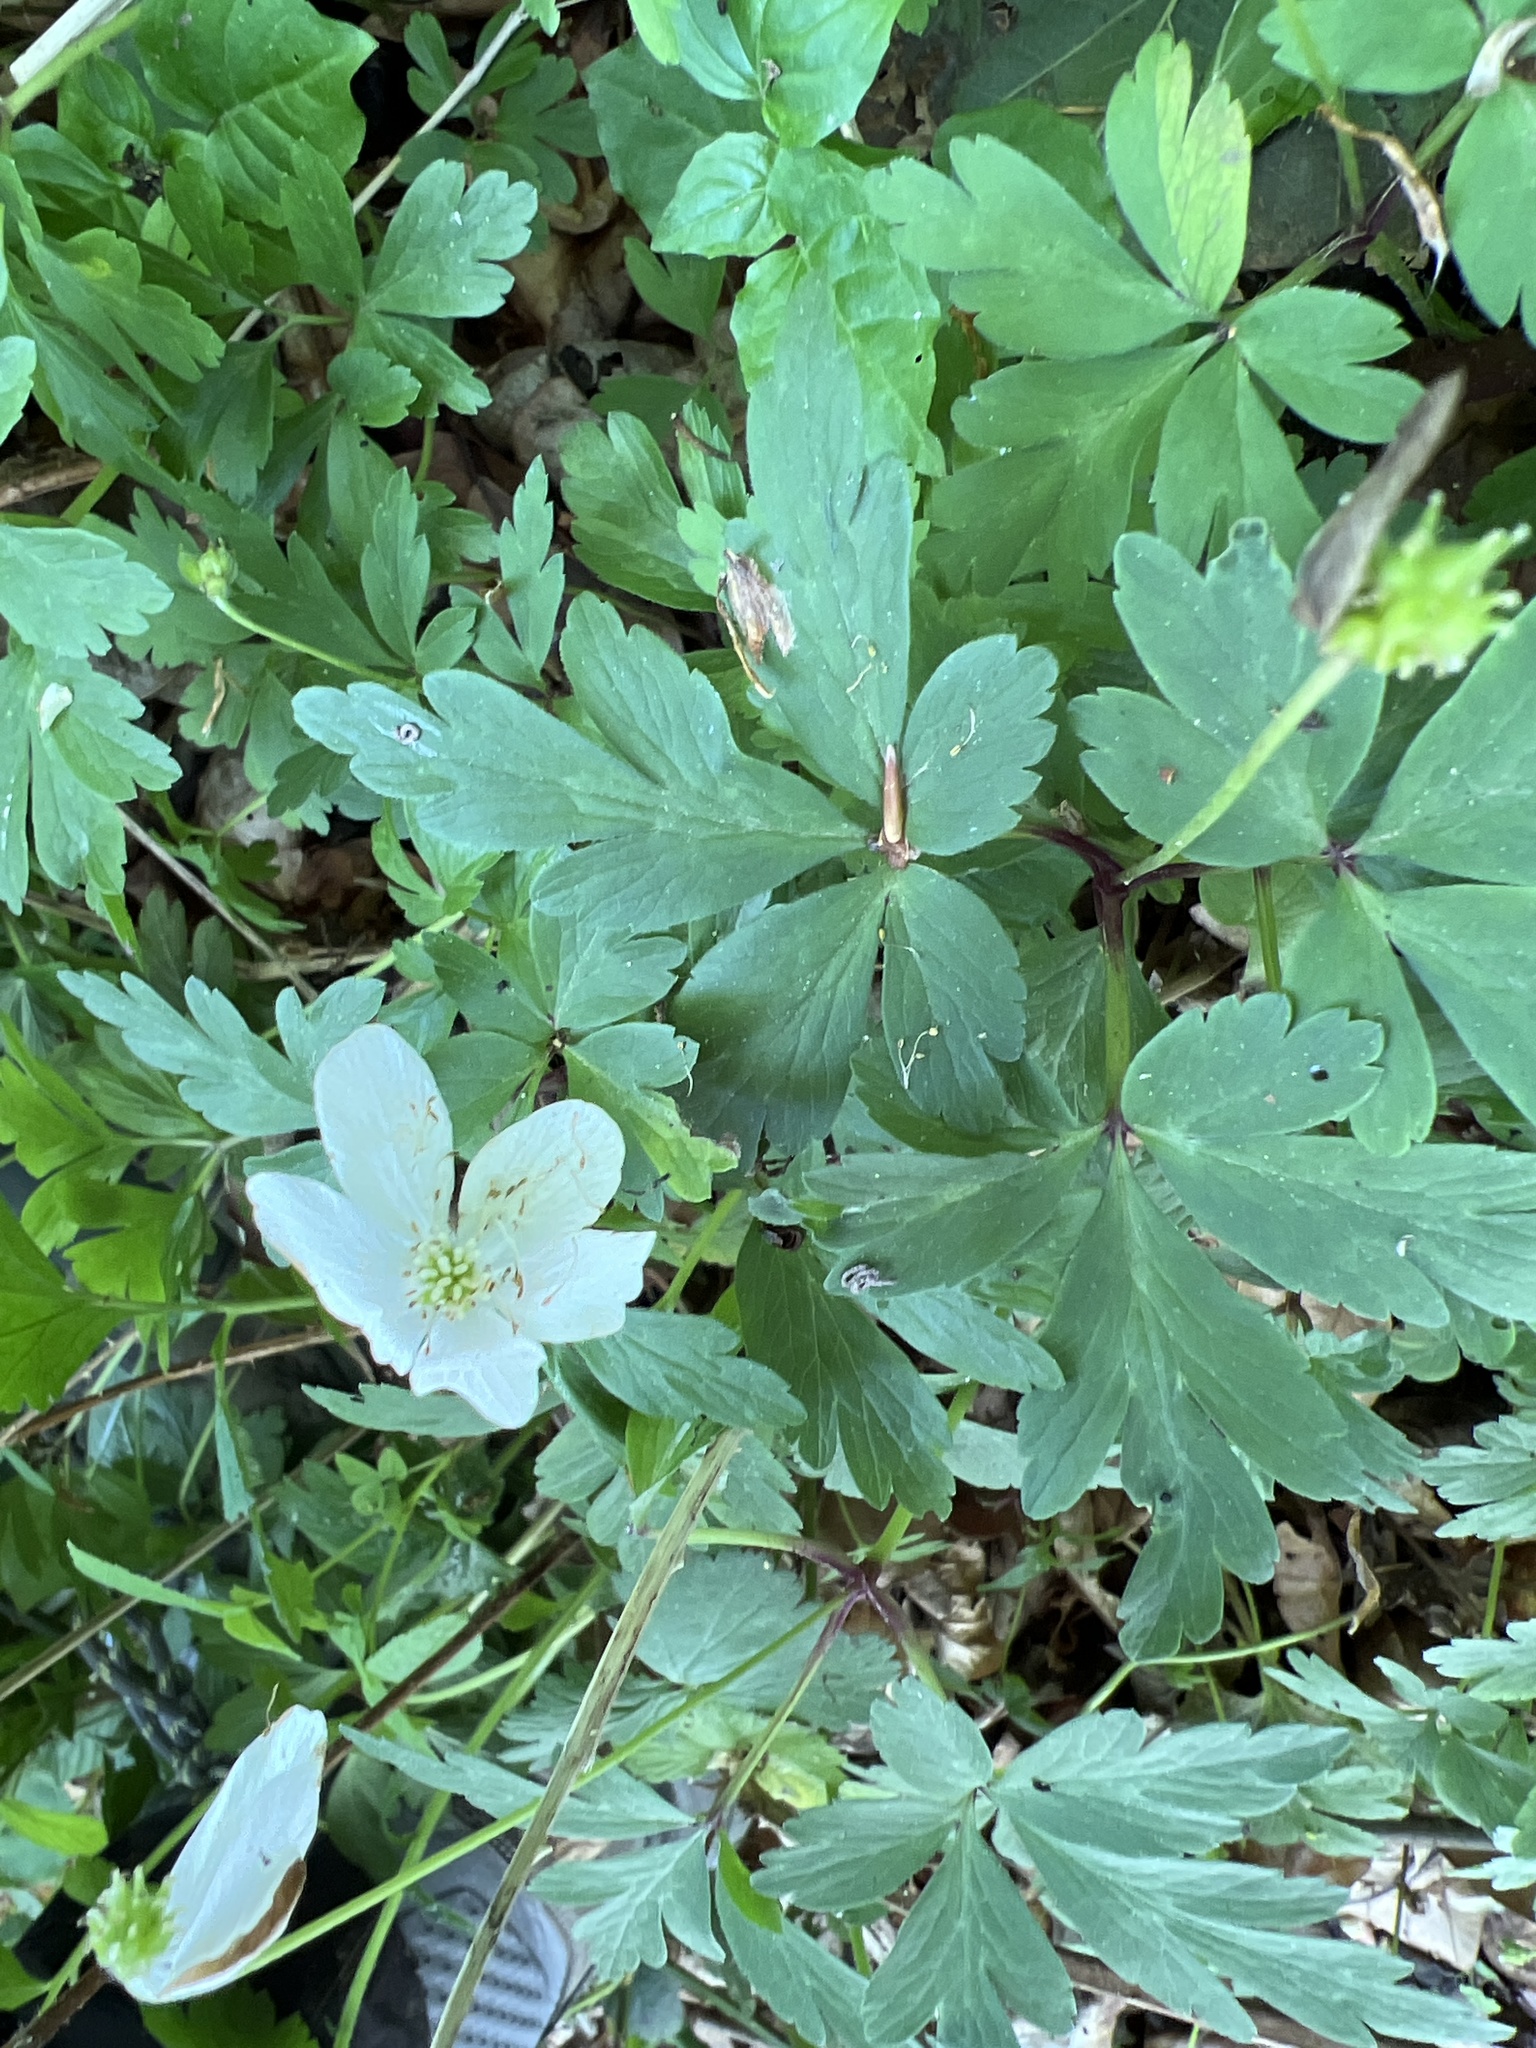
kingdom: Plantae
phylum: Tracheophyta
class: Magnoliopsida
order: Ranunculales
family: Ranunculaceae
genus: Anemone
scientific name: Anemone nemorosa
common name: Wood anemone
